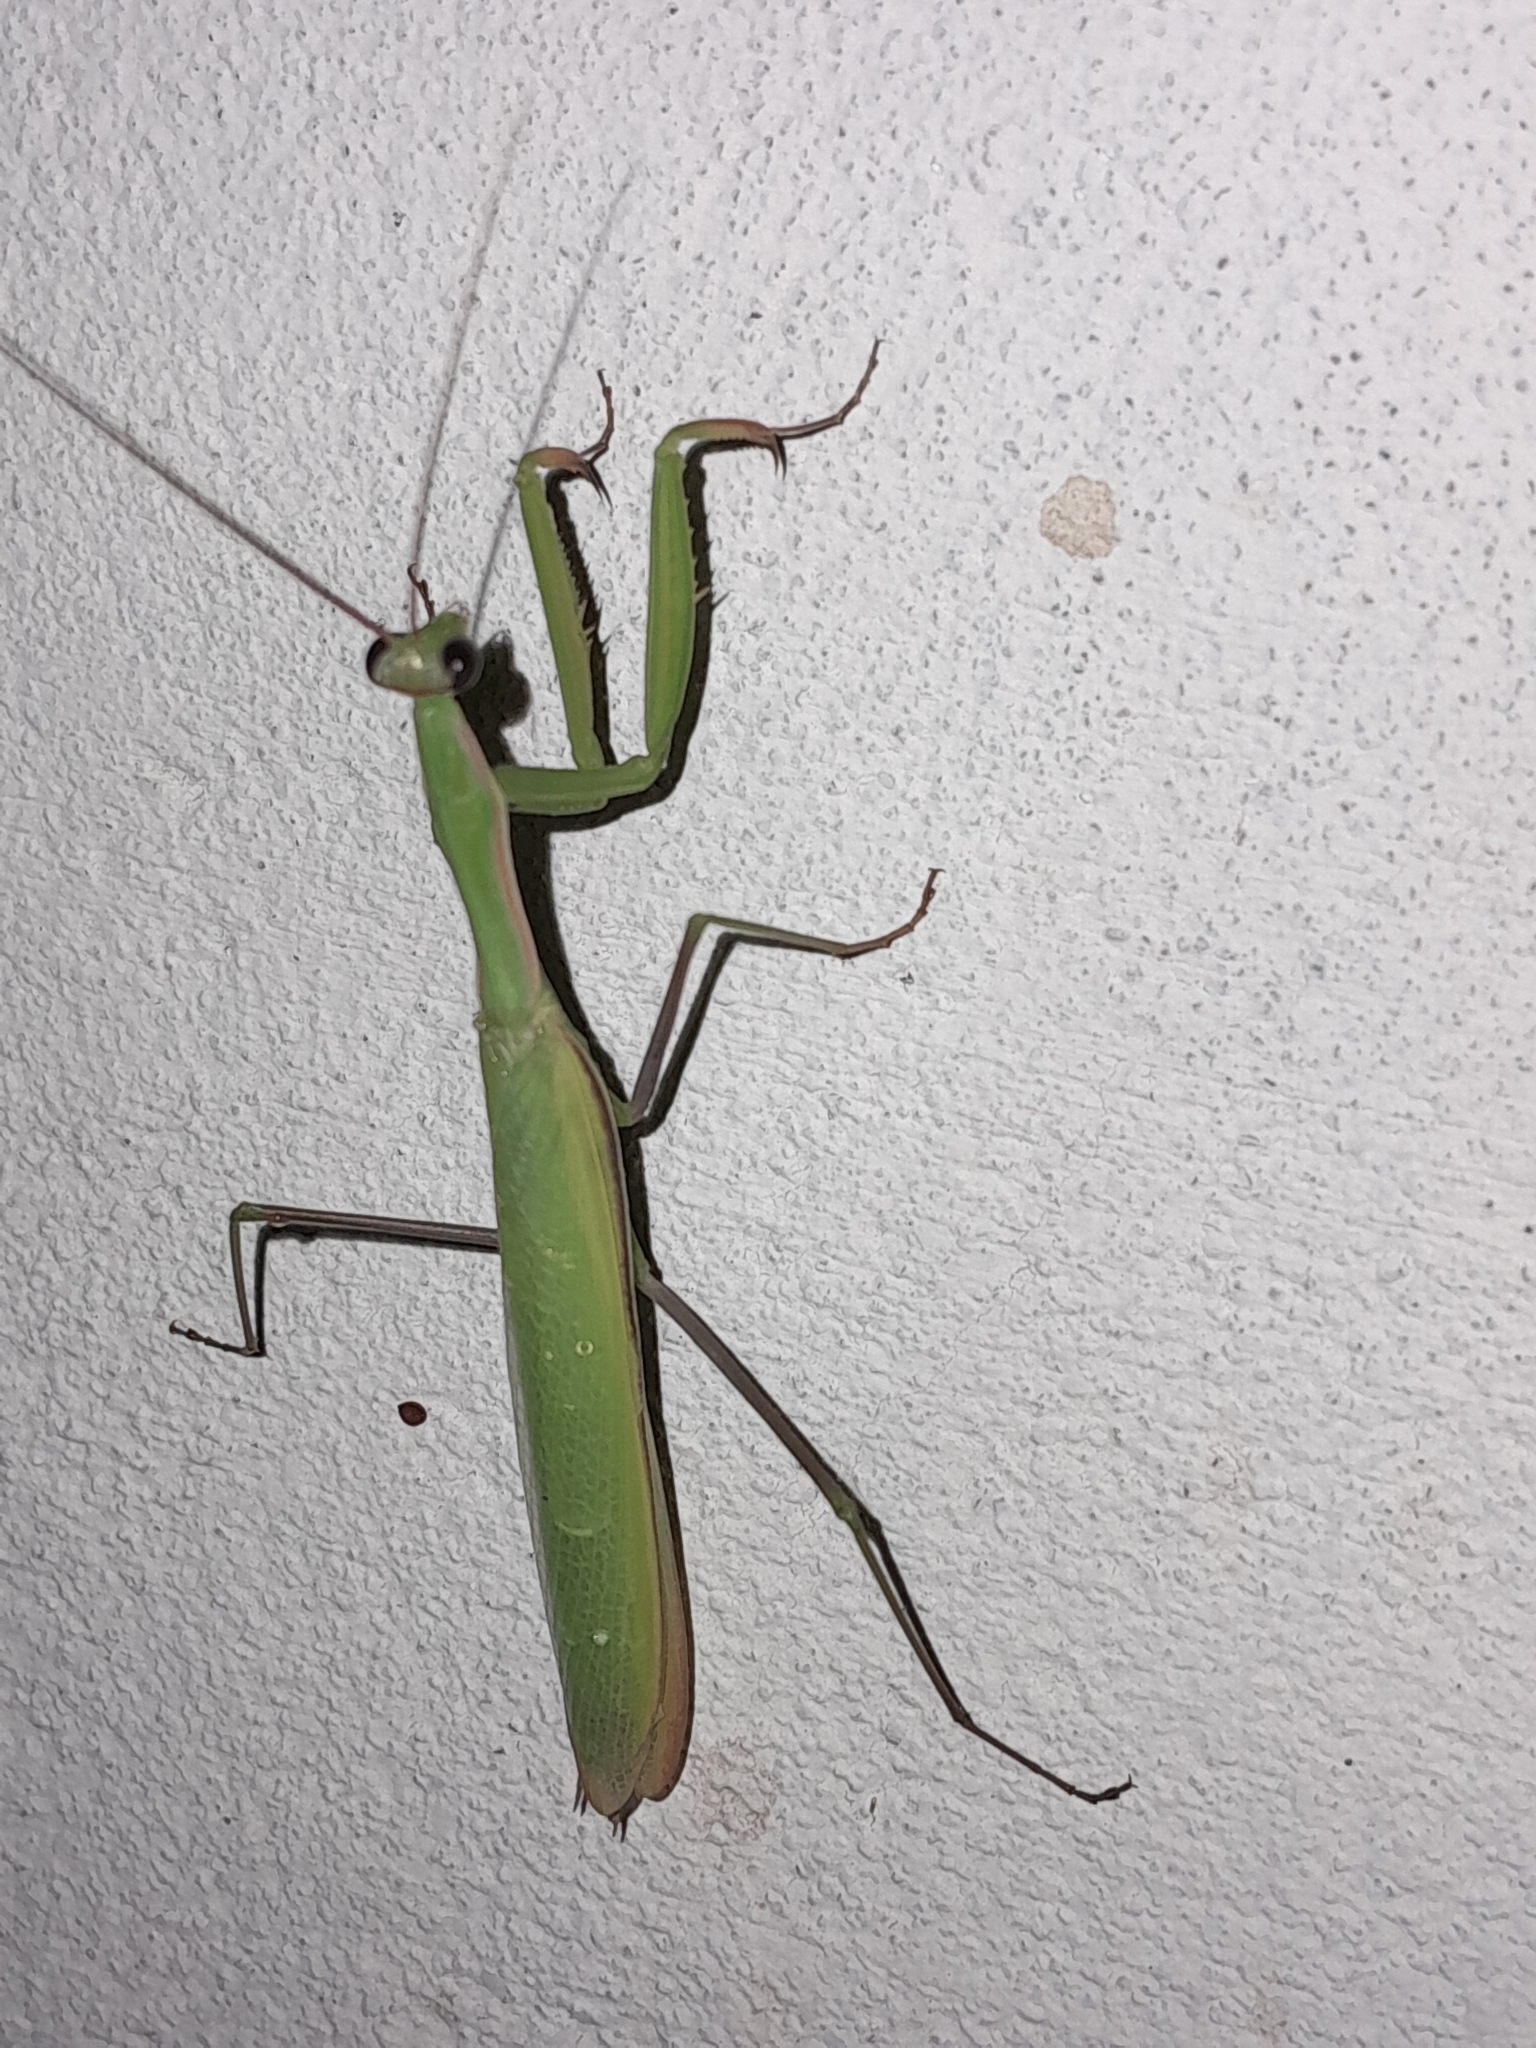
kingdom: Animalia
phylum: Arthropoda
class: Insecta
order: Mantodea
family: Mantidae
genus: Mantis
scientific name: Mantis religiosa
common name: Praying mantis
